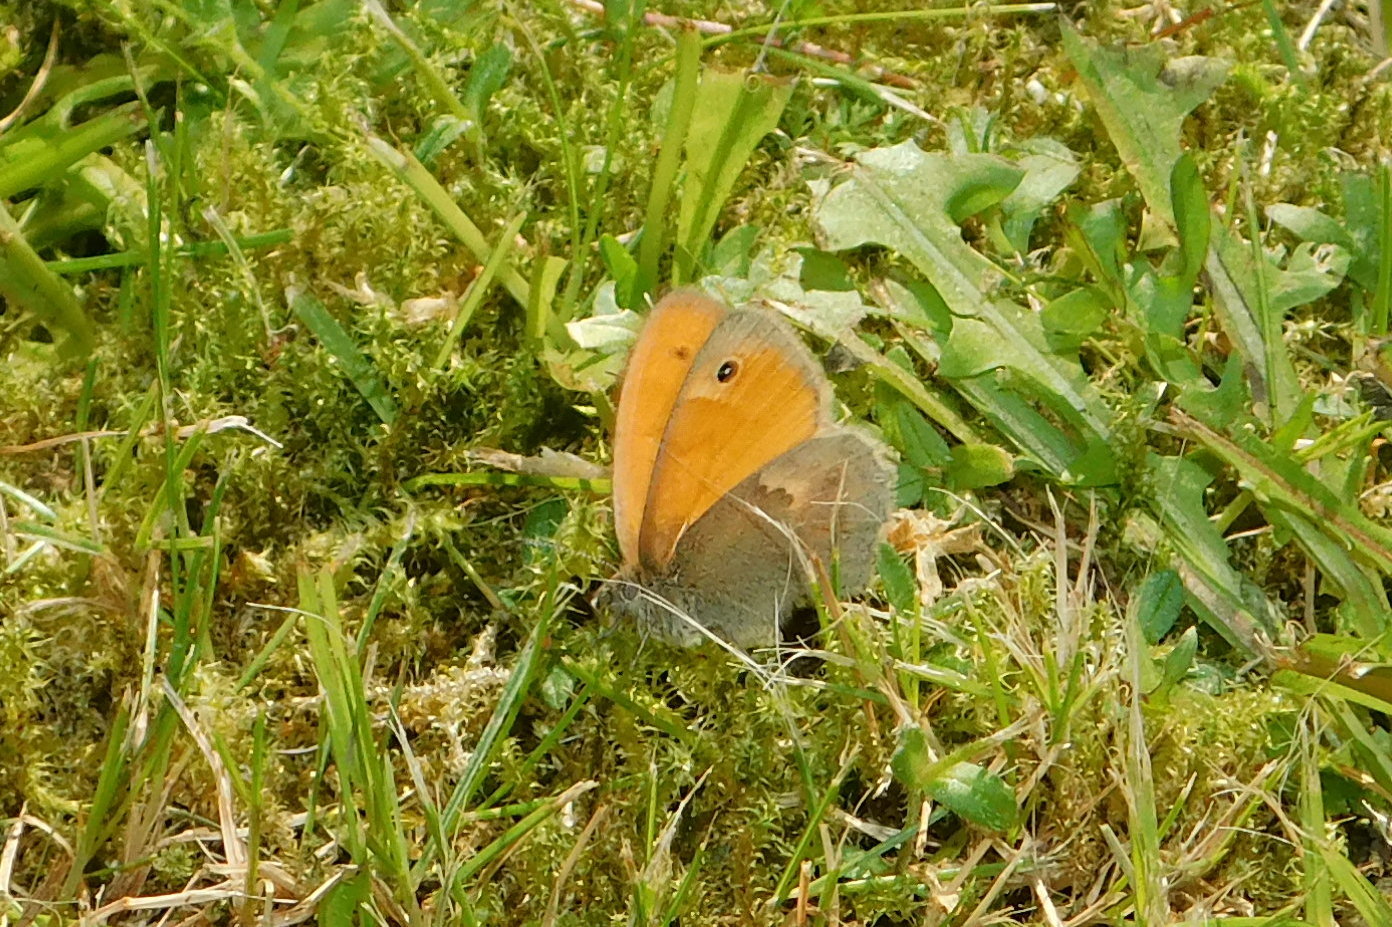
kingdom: Animalia
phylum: Arthropoda
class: Insecta
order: Lepidoptera
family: Nymphalidae
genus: Coenonympha
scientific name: Coenonympha pamphilus
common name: Small heath
